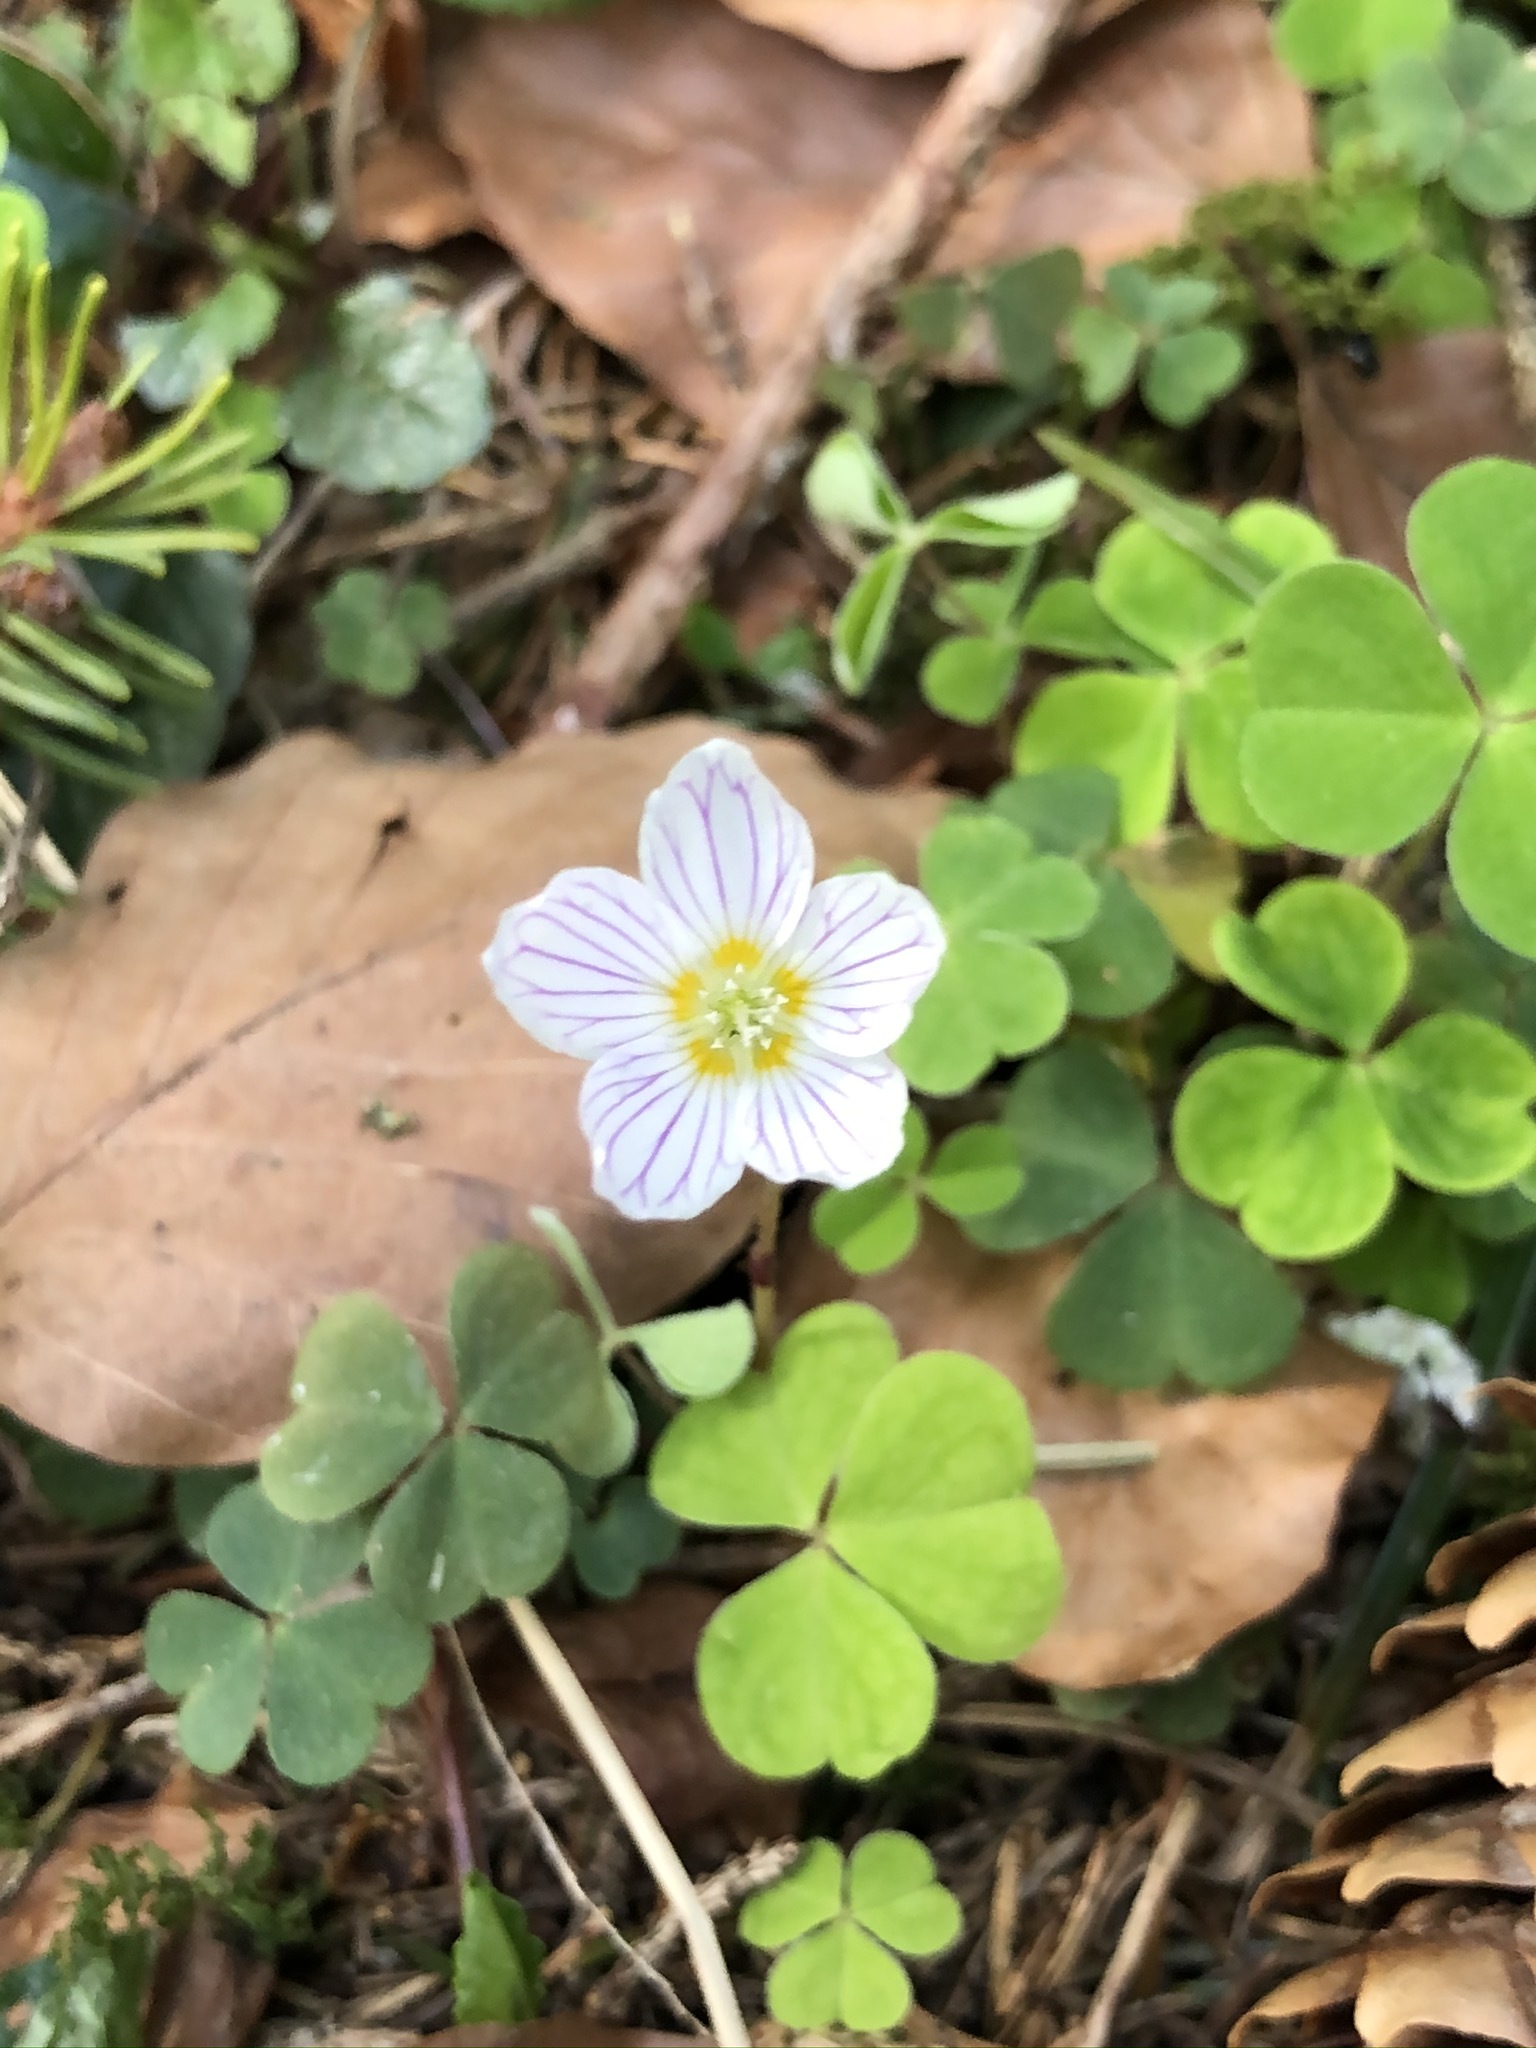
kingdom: Plantae
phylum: Tracheophyta
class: Magnoliopsida
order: Oxalidales
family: Oxalidaceae
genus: Oxalis
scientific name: Oxalis acetosella
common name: Wood-sorrel
